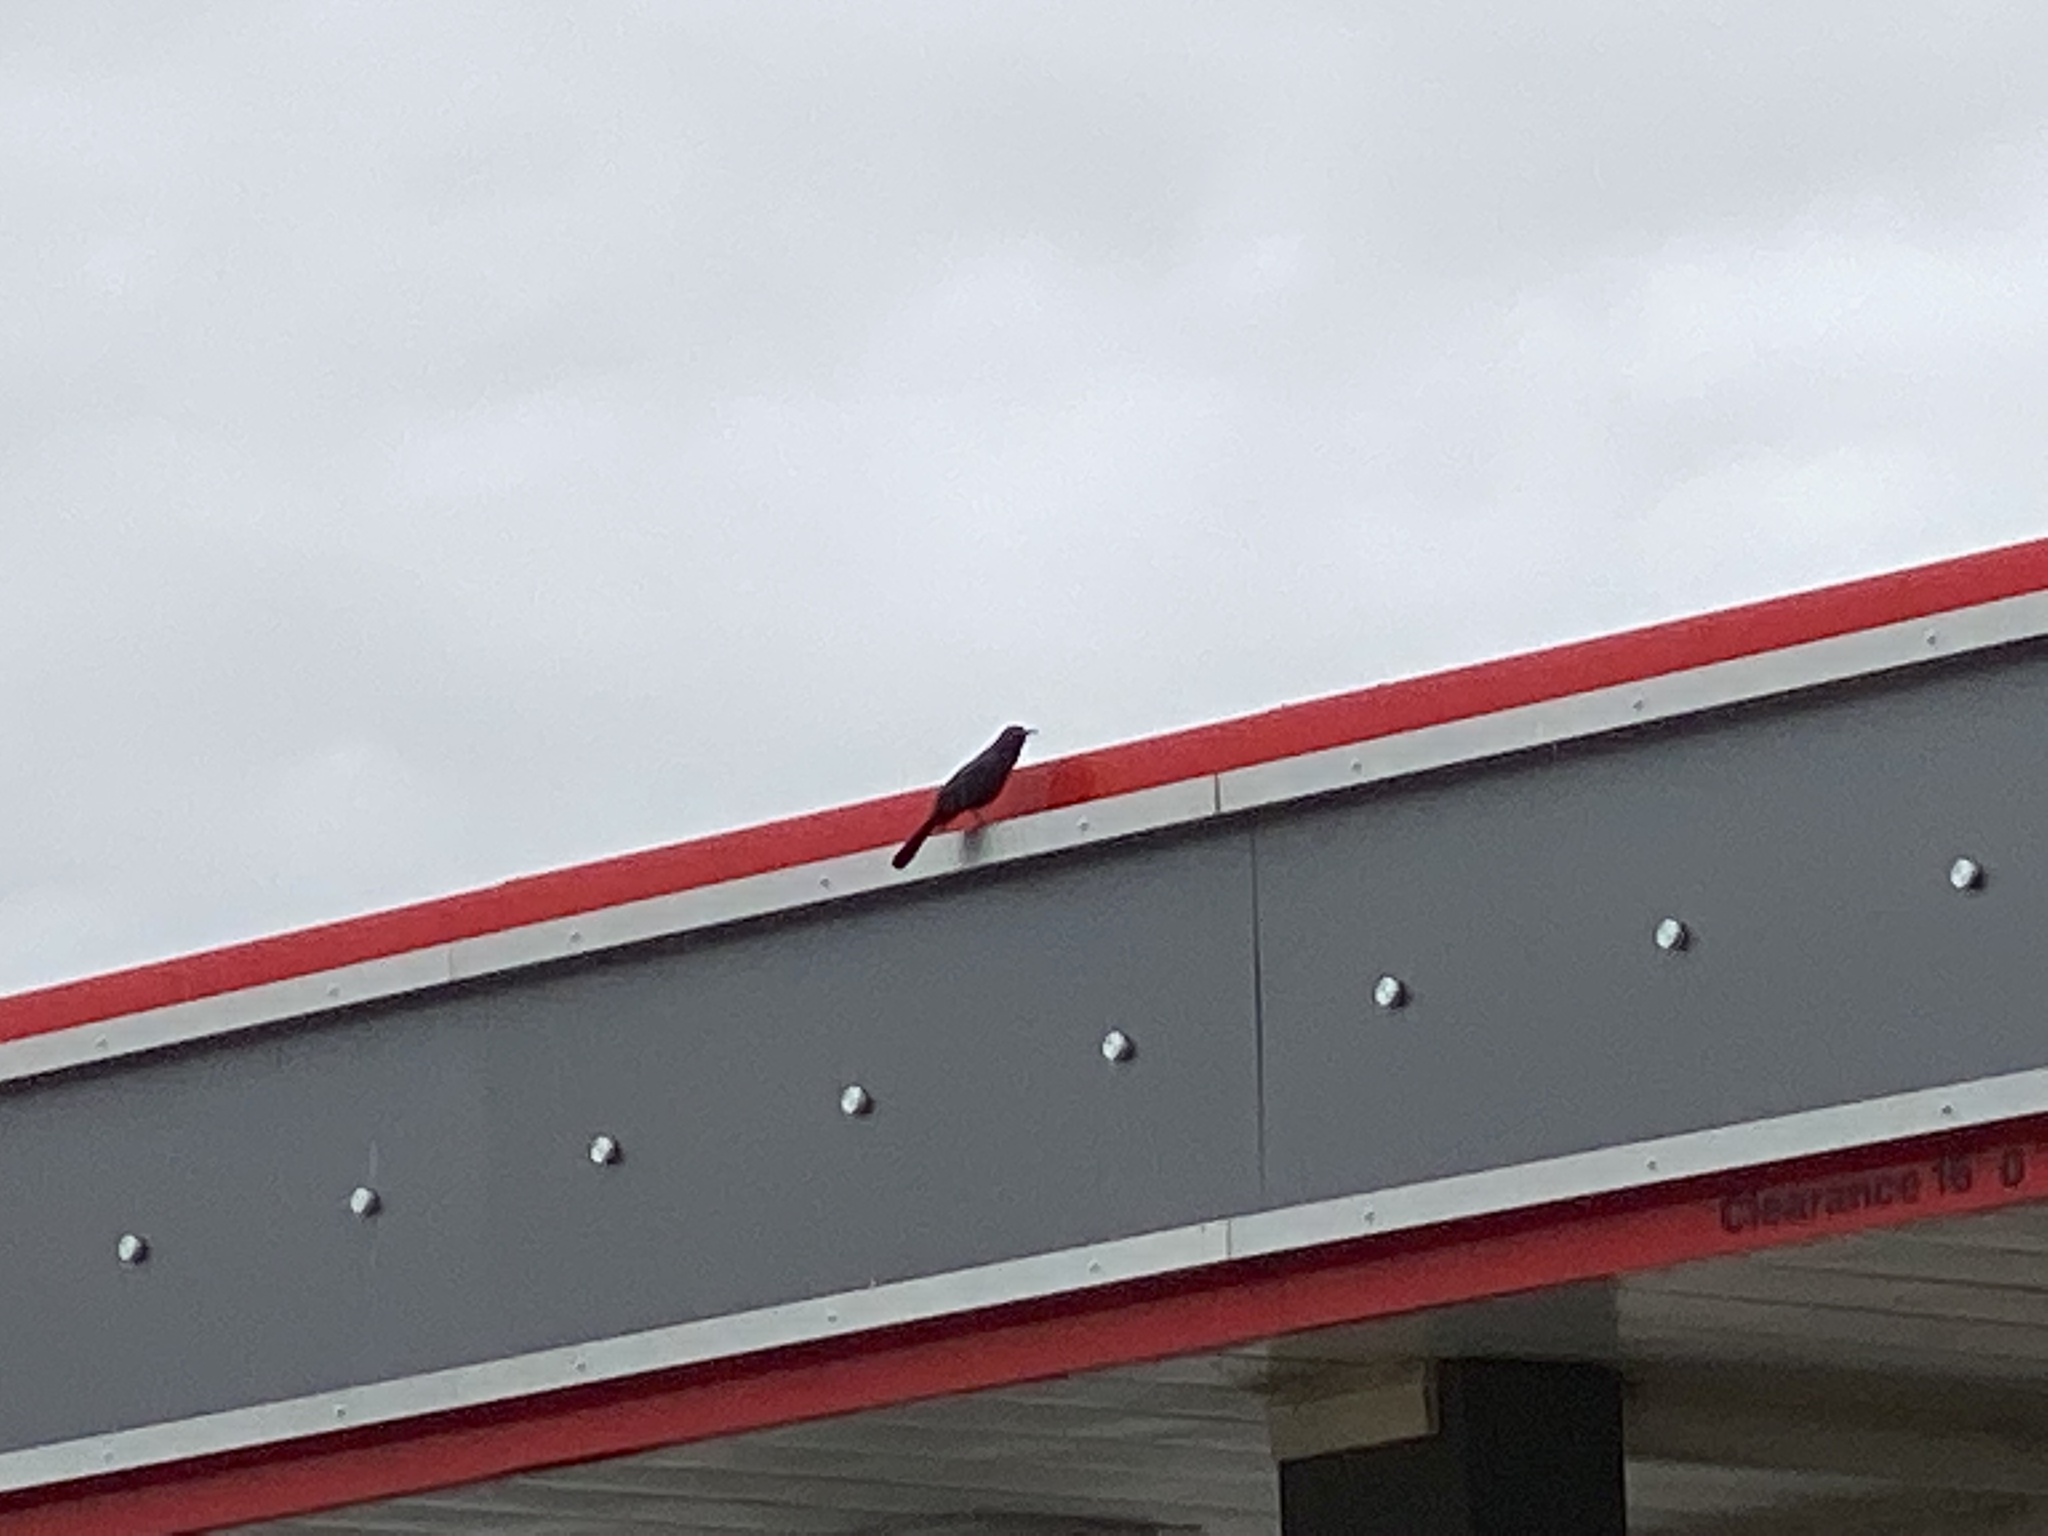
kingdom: Animalia
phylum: Chordata
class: Aves
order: Passeriformes
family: Icteridae
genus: Quiscalus
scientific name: Quiscalus mexicanus
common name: Great-tailed grackle
